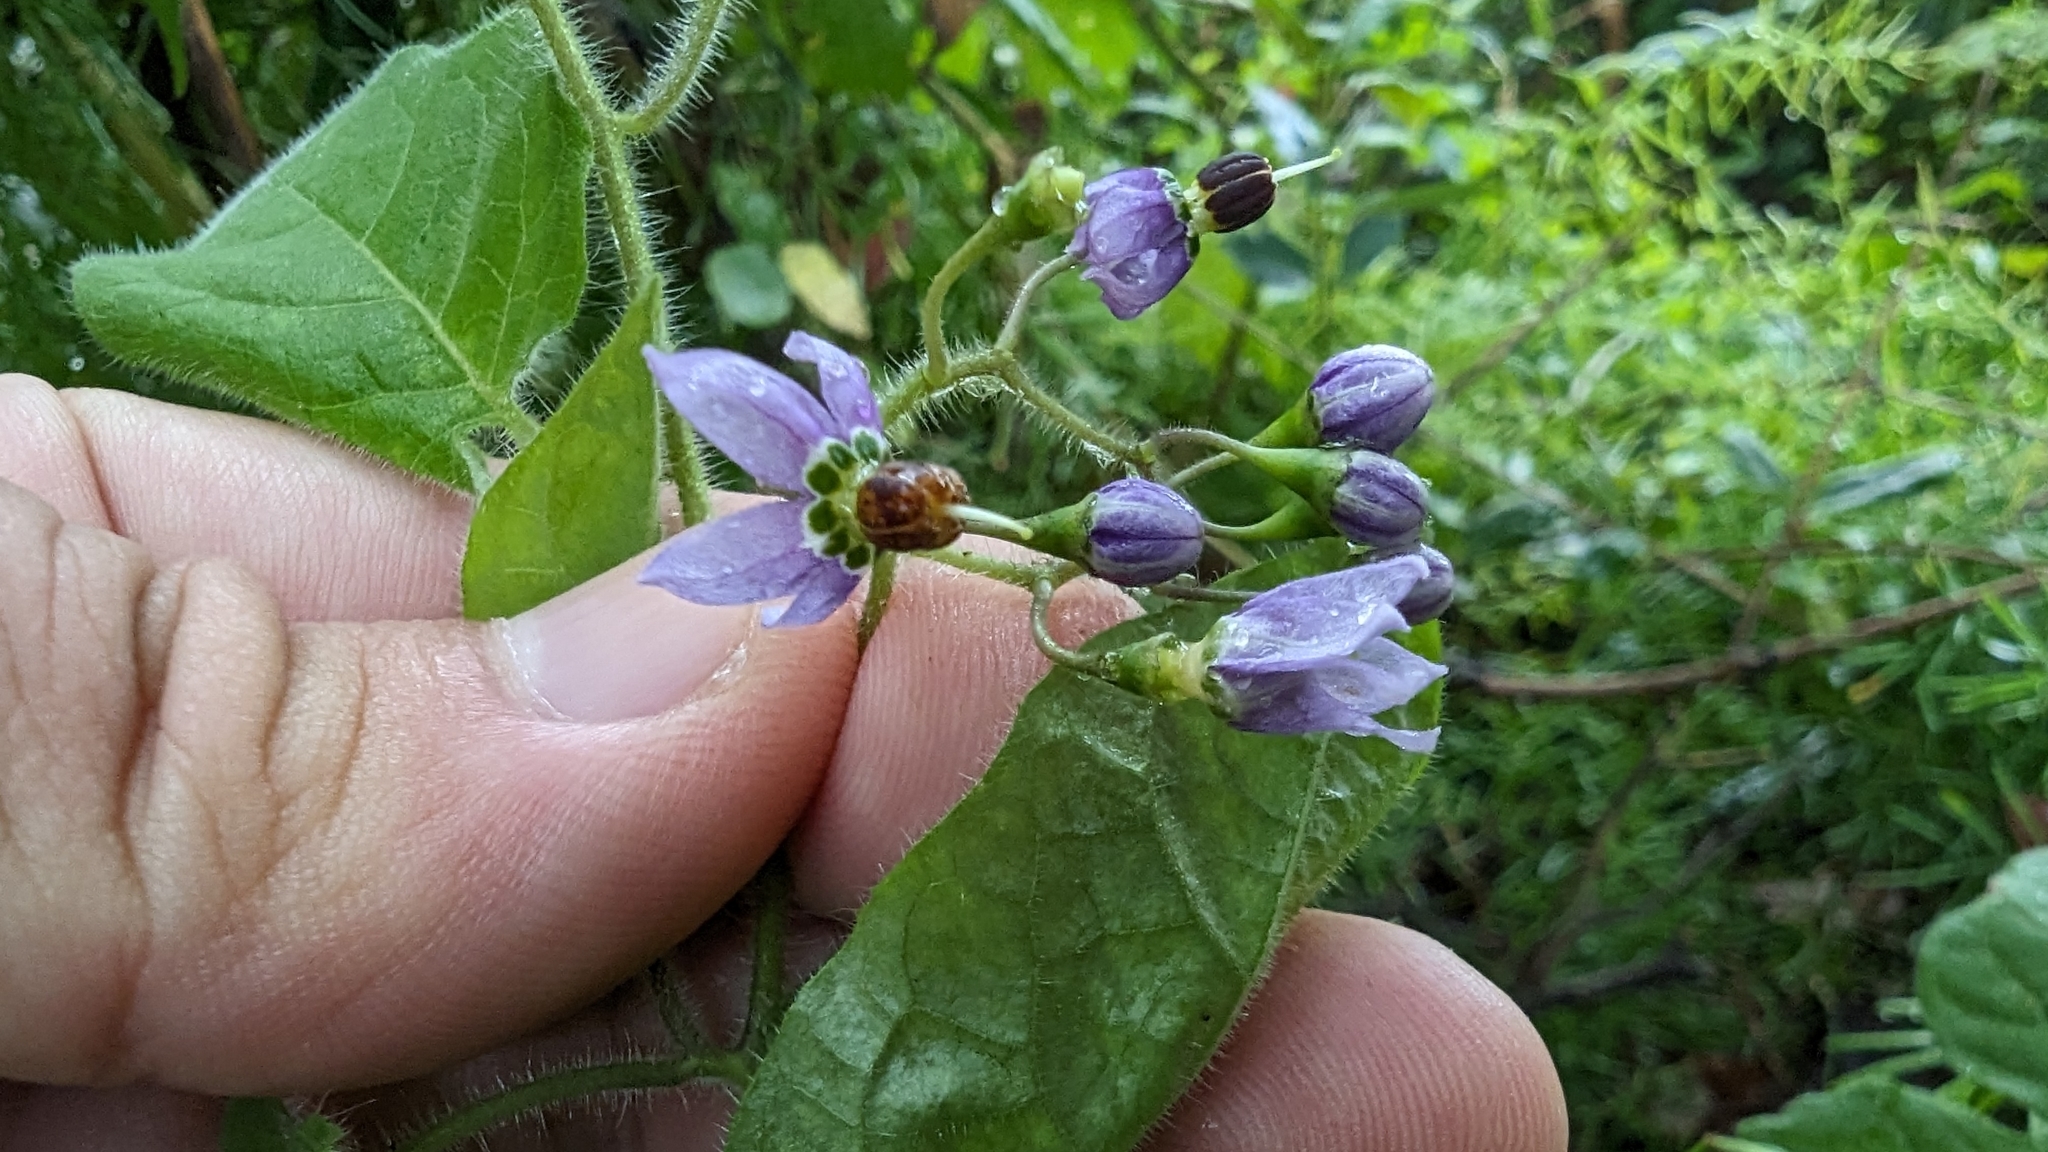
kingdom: Plantae
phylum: Tracheophyta
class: Magnoliopsida
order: Solanales
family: Solanaceae
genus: Solanum
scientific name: Solanum lyratum
